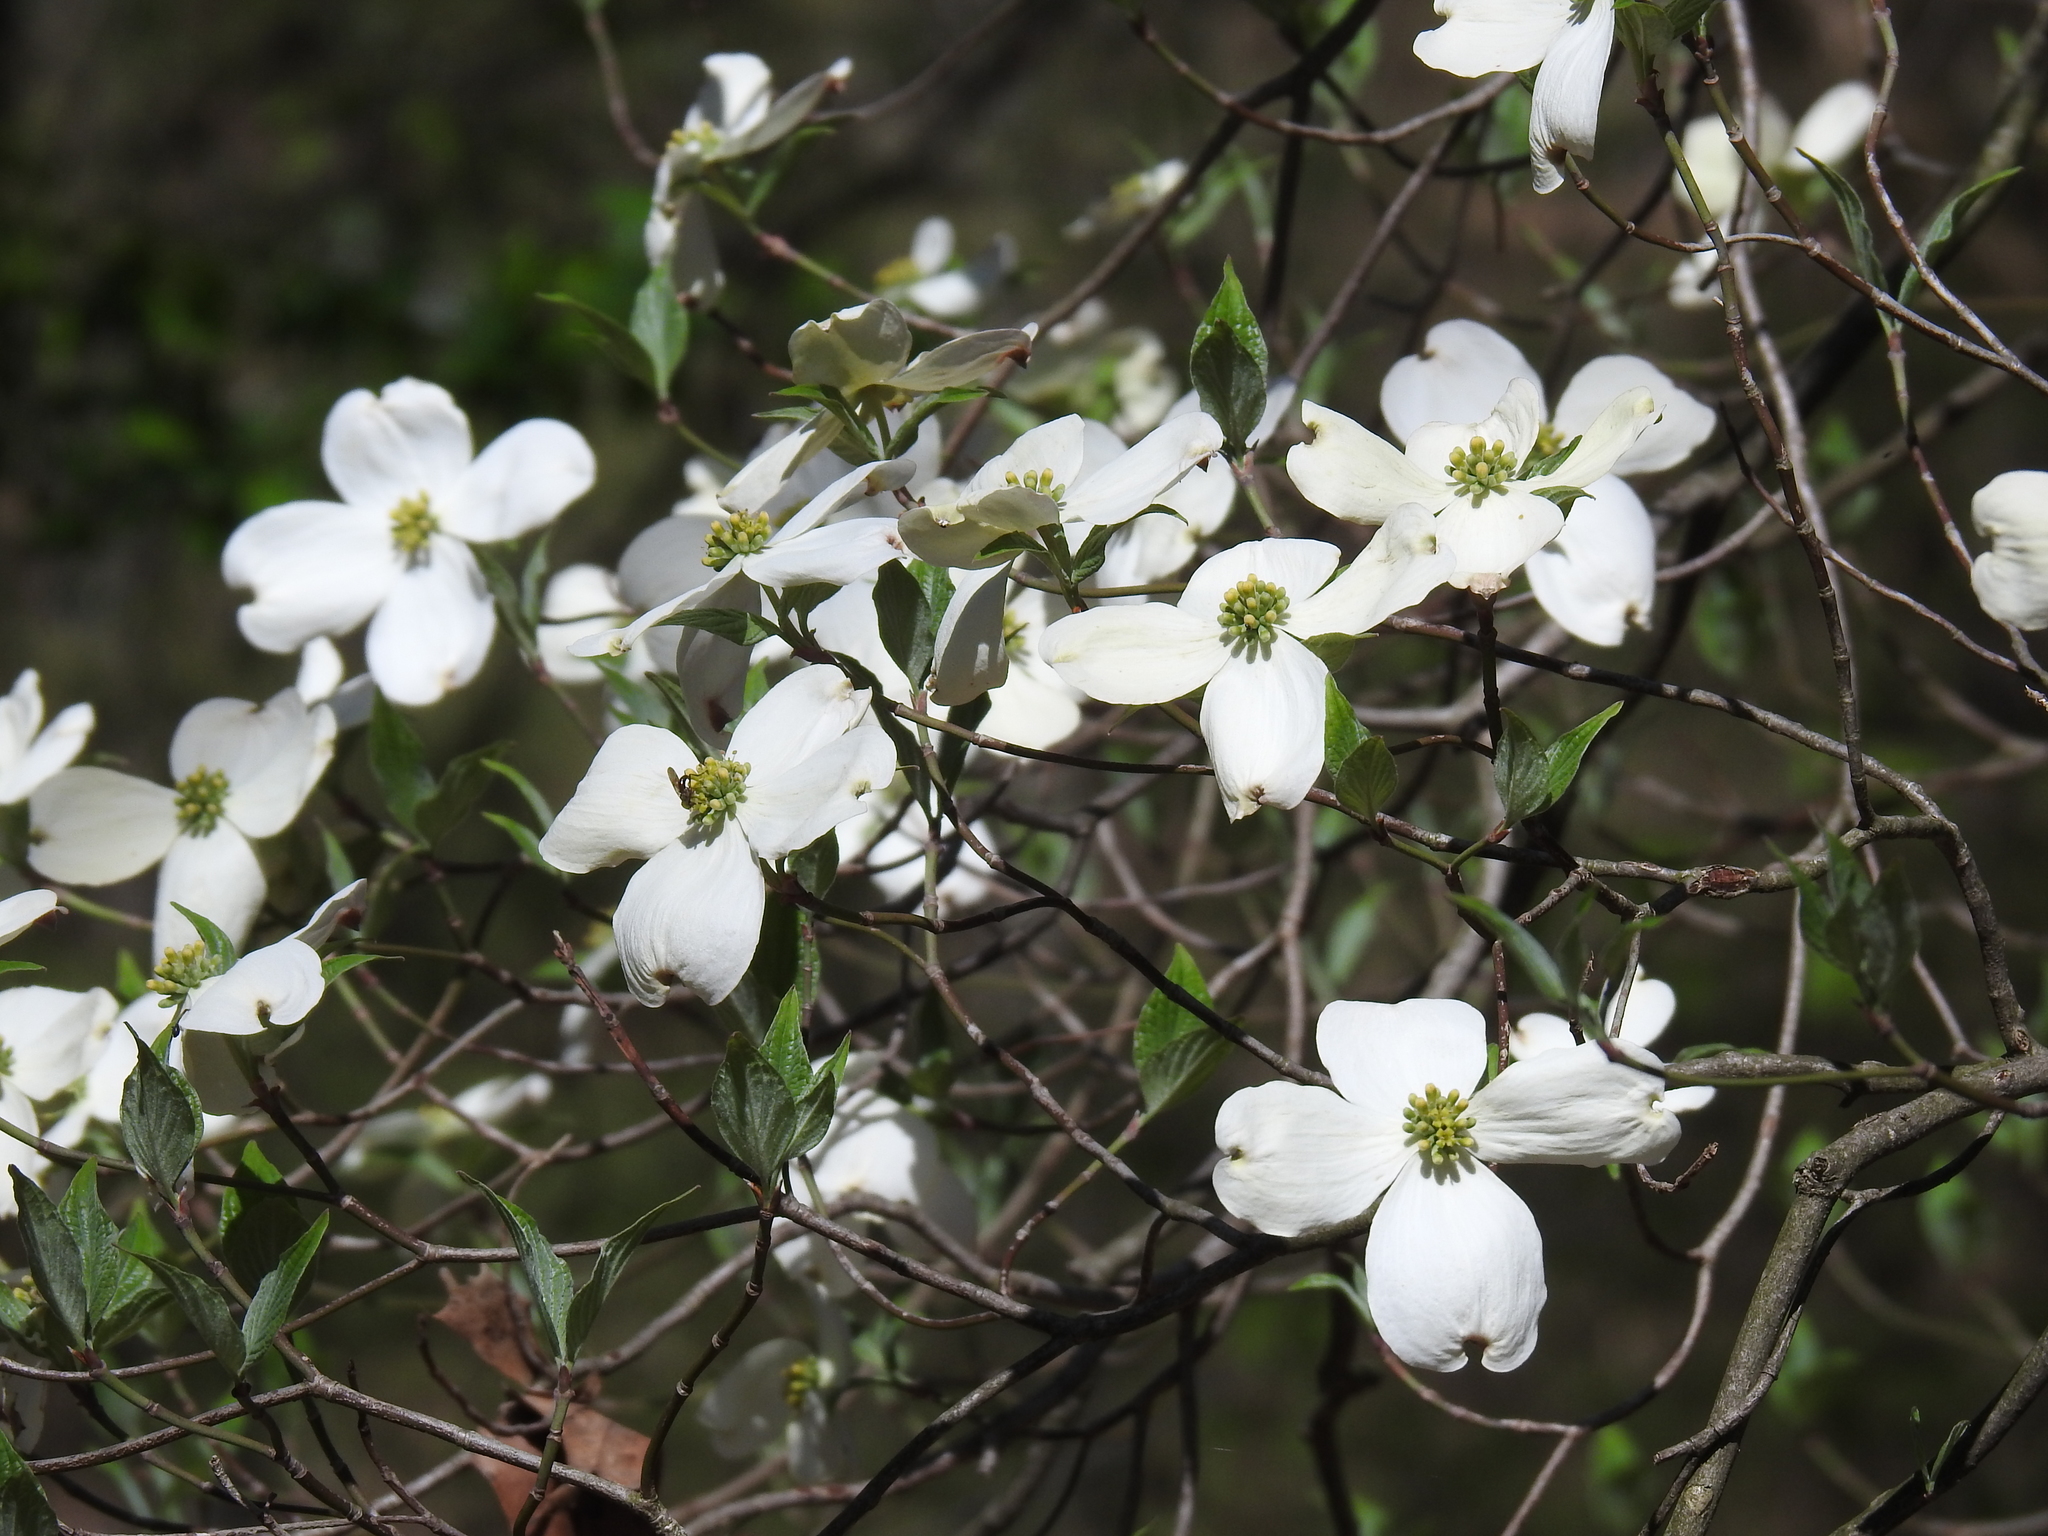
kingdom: Plantae
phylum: Tracheophyta
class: Magnoliopsida
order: Cornales
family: Cornaceae
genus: Cornus
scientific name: Cornus florida
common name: Flowering dogwood
